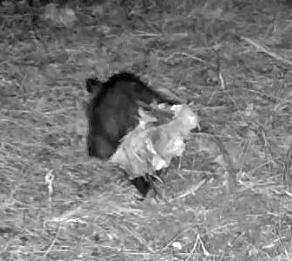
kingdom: Animalia
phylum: Chordata
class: Mammalia
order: Didelphimorphia
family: Didelphidae
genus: Didelphis
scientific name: Didelphis virginiana
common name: Virginia opossum
